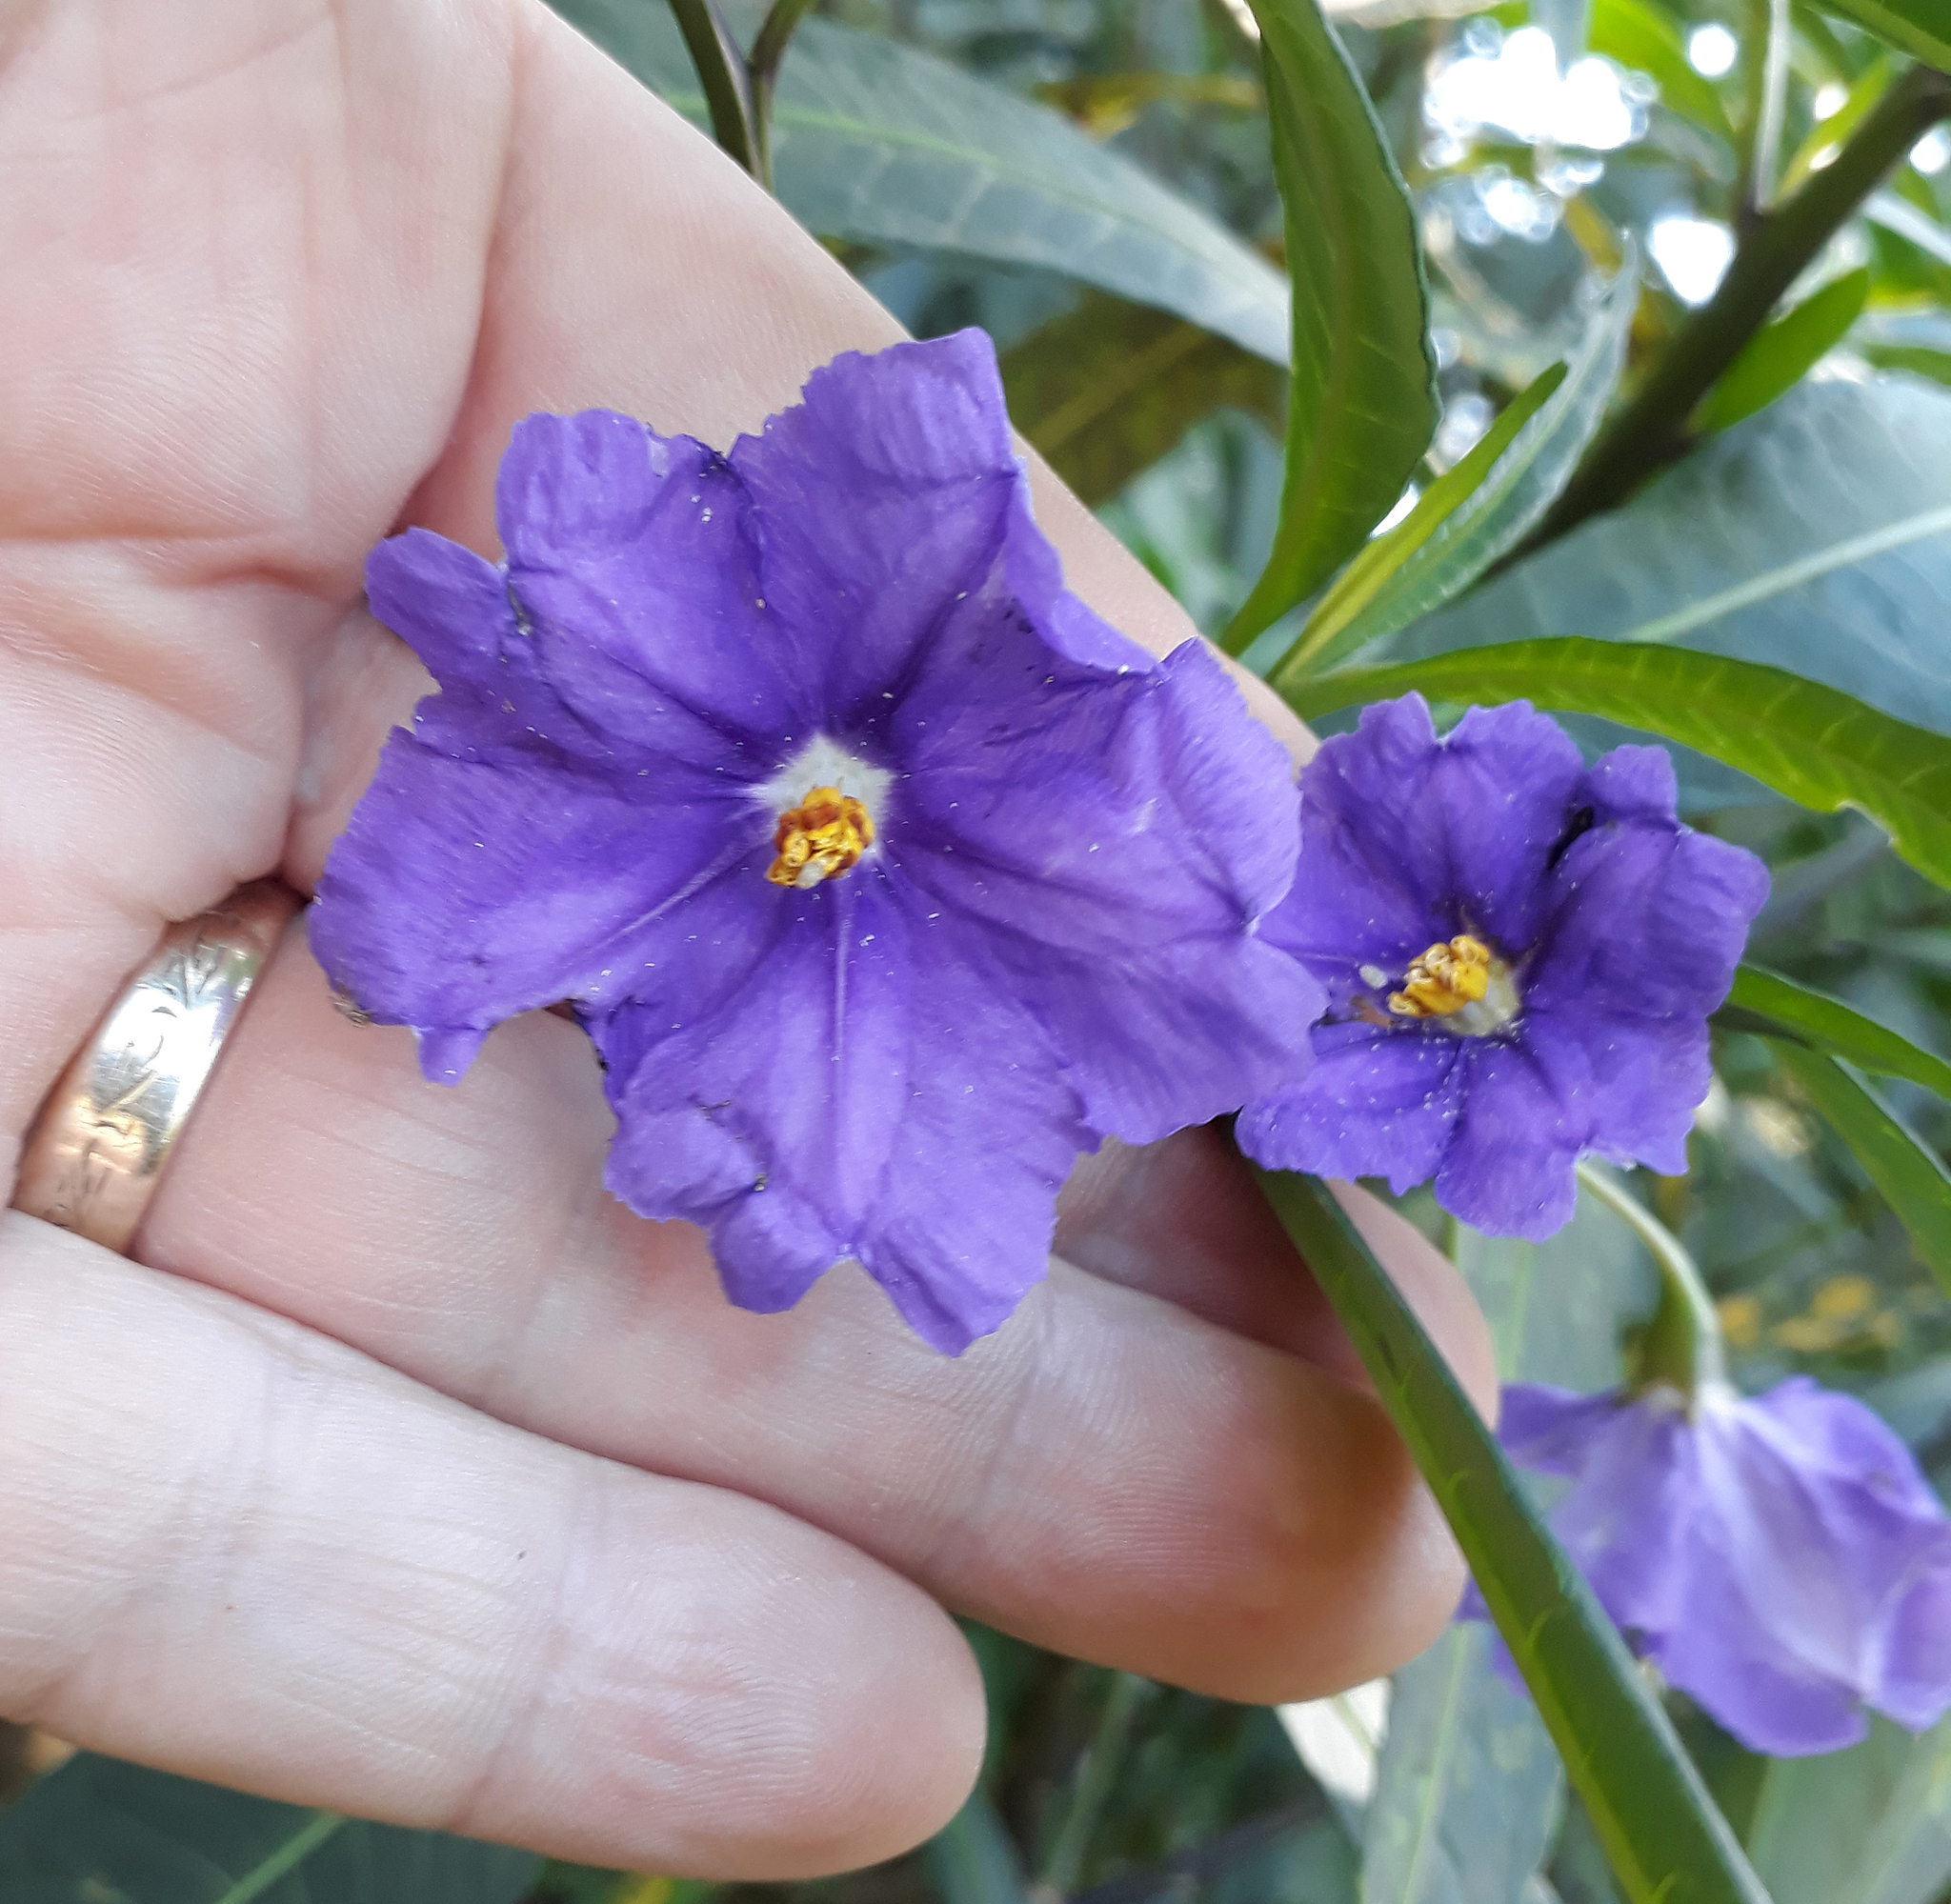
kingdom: Plantae
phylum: Tracheophyta
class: Magnoliopsida
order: Solanales
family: Solanaceae
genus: Solanum
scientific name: Solanum laciniatum
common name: Kangaroo-apple
